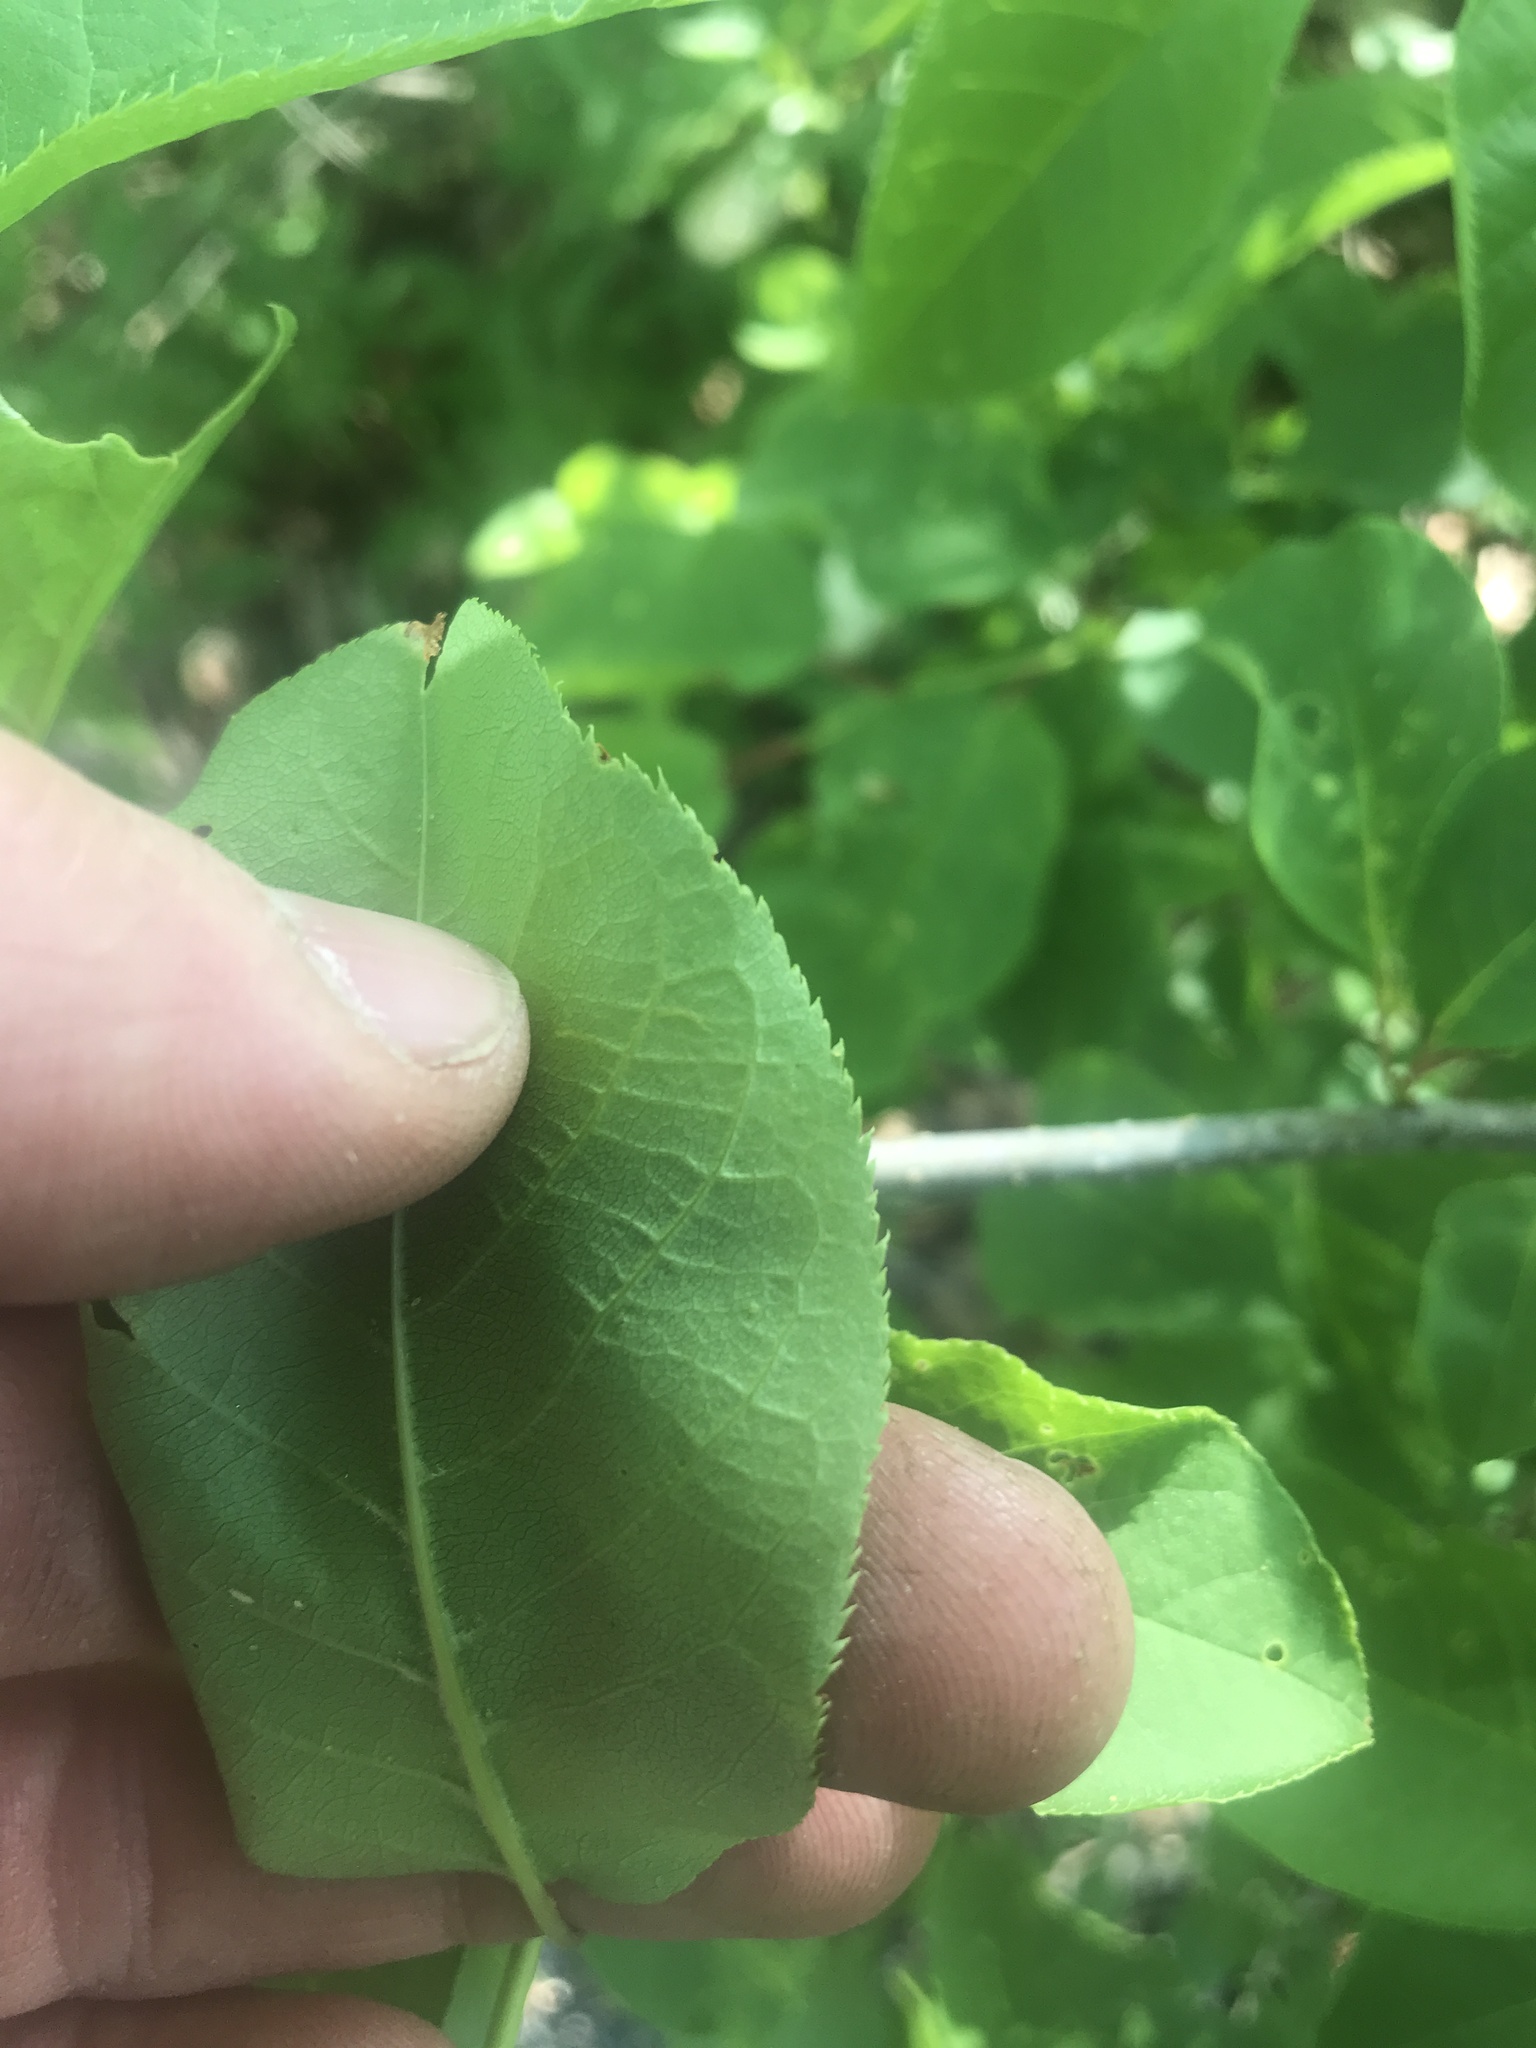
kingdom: Plantae
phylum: Tracheophyta
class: Magnoliopsida
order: Rosales
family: Rosaceae
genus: Prunus
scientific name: Prunus virginiana
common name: Chokecherry
